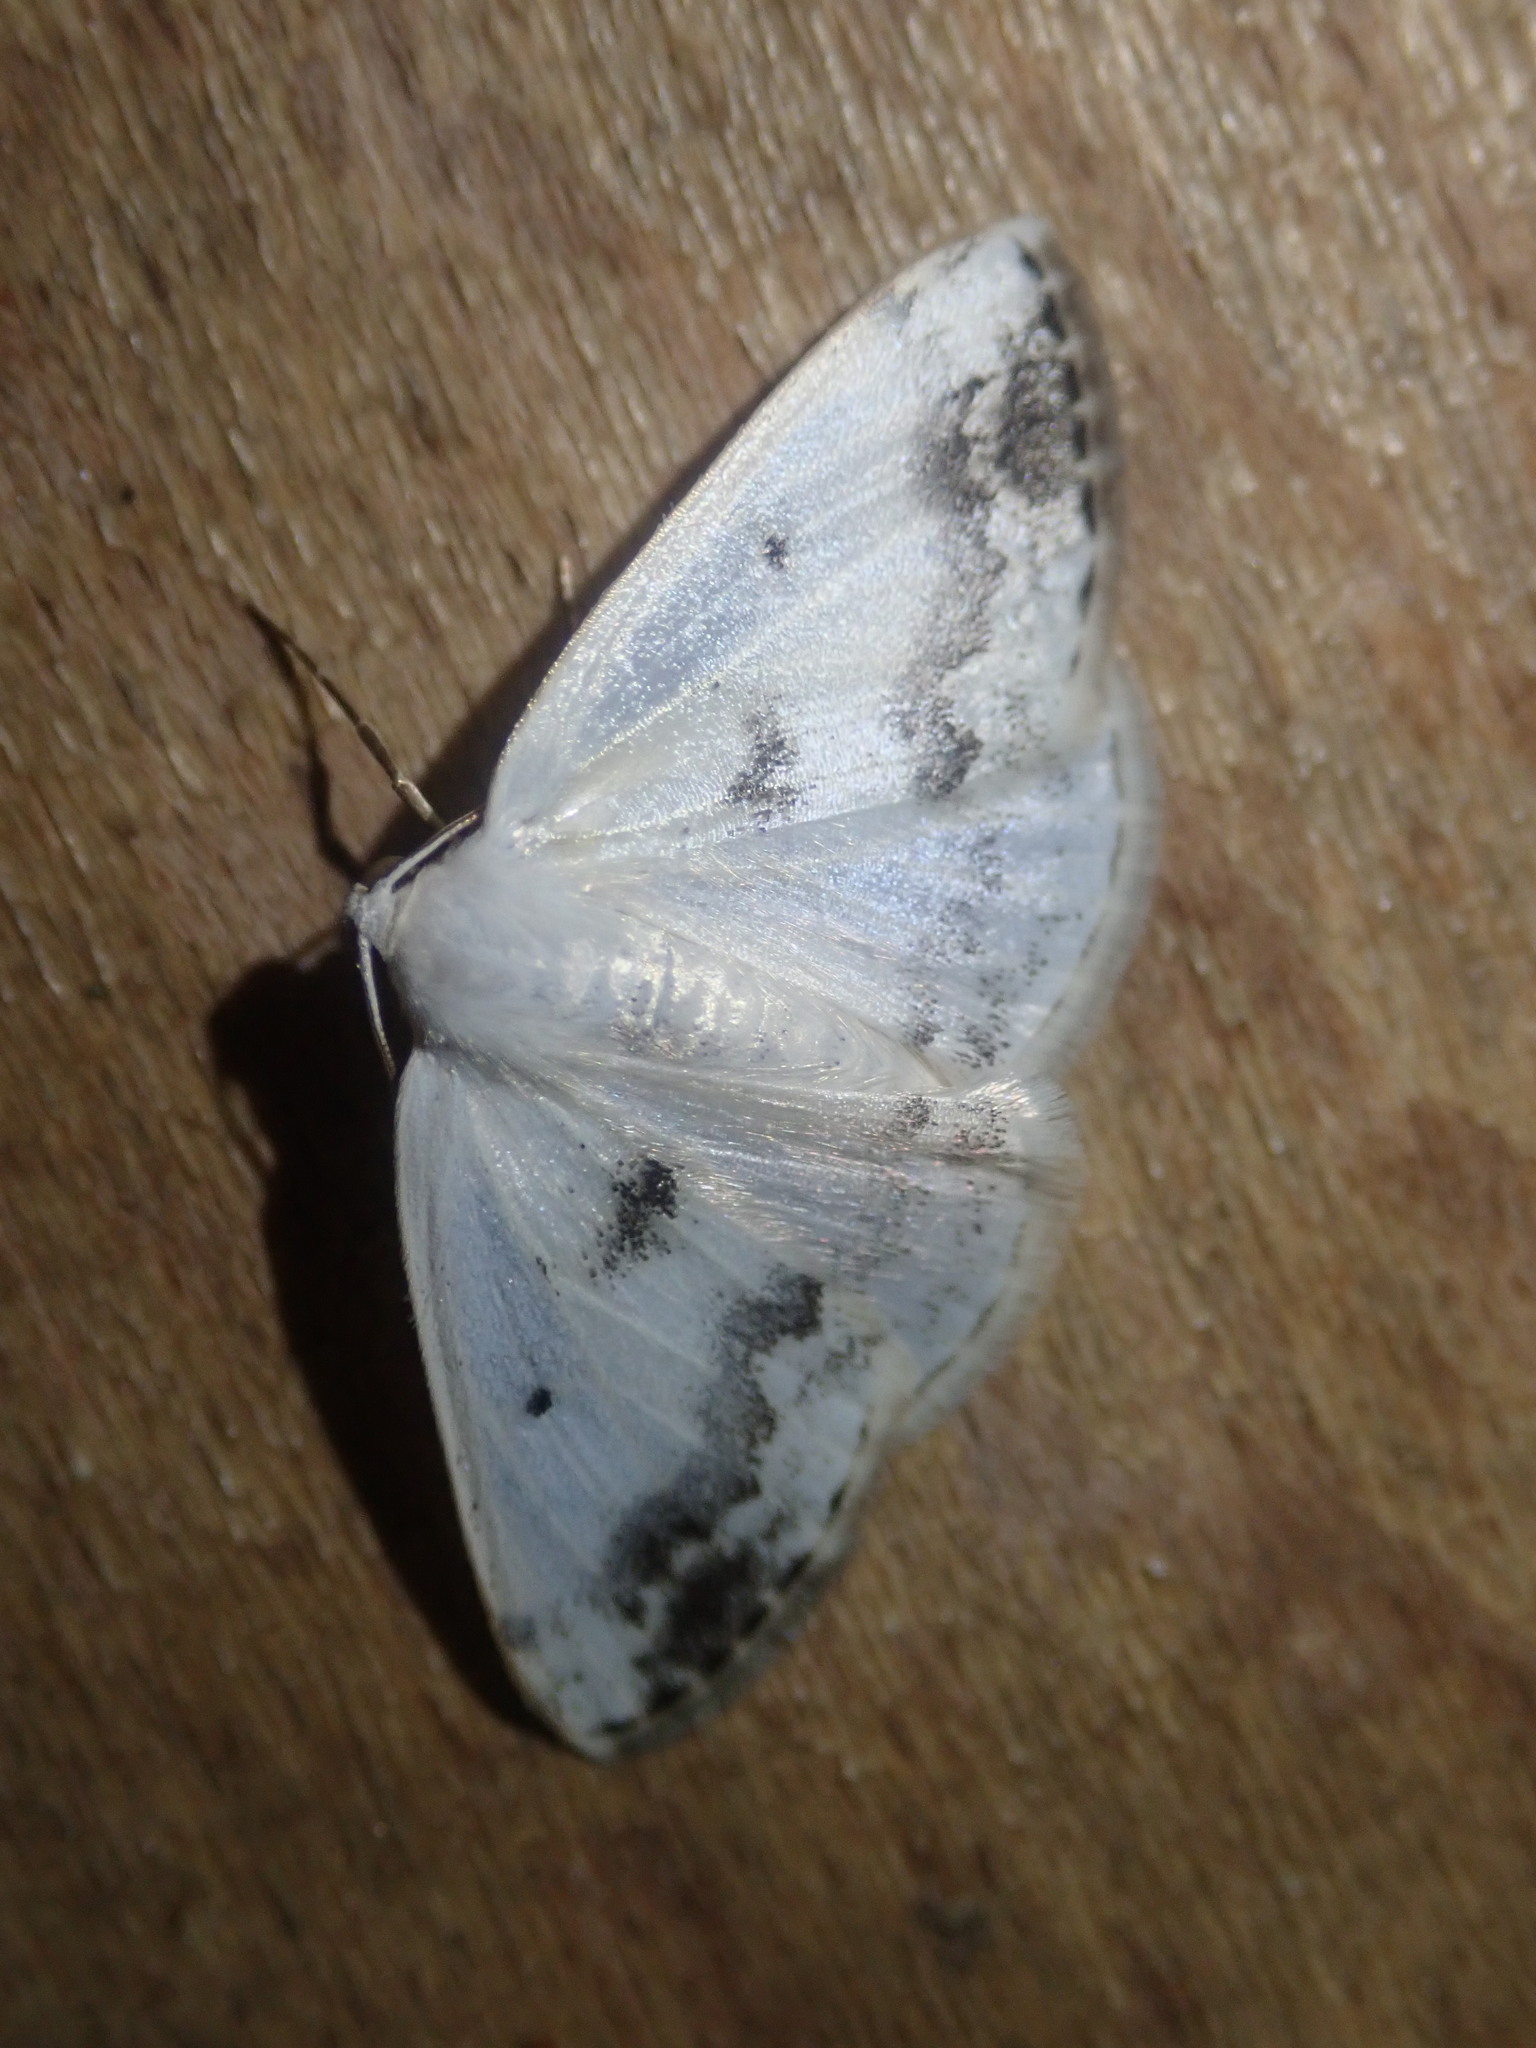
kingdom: Animalia
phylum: Arthropoda
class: Insecta
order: Lepidoptera
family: Geometridae
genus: Lomographa
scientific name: Lomographa temerata
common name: Clouded silver
